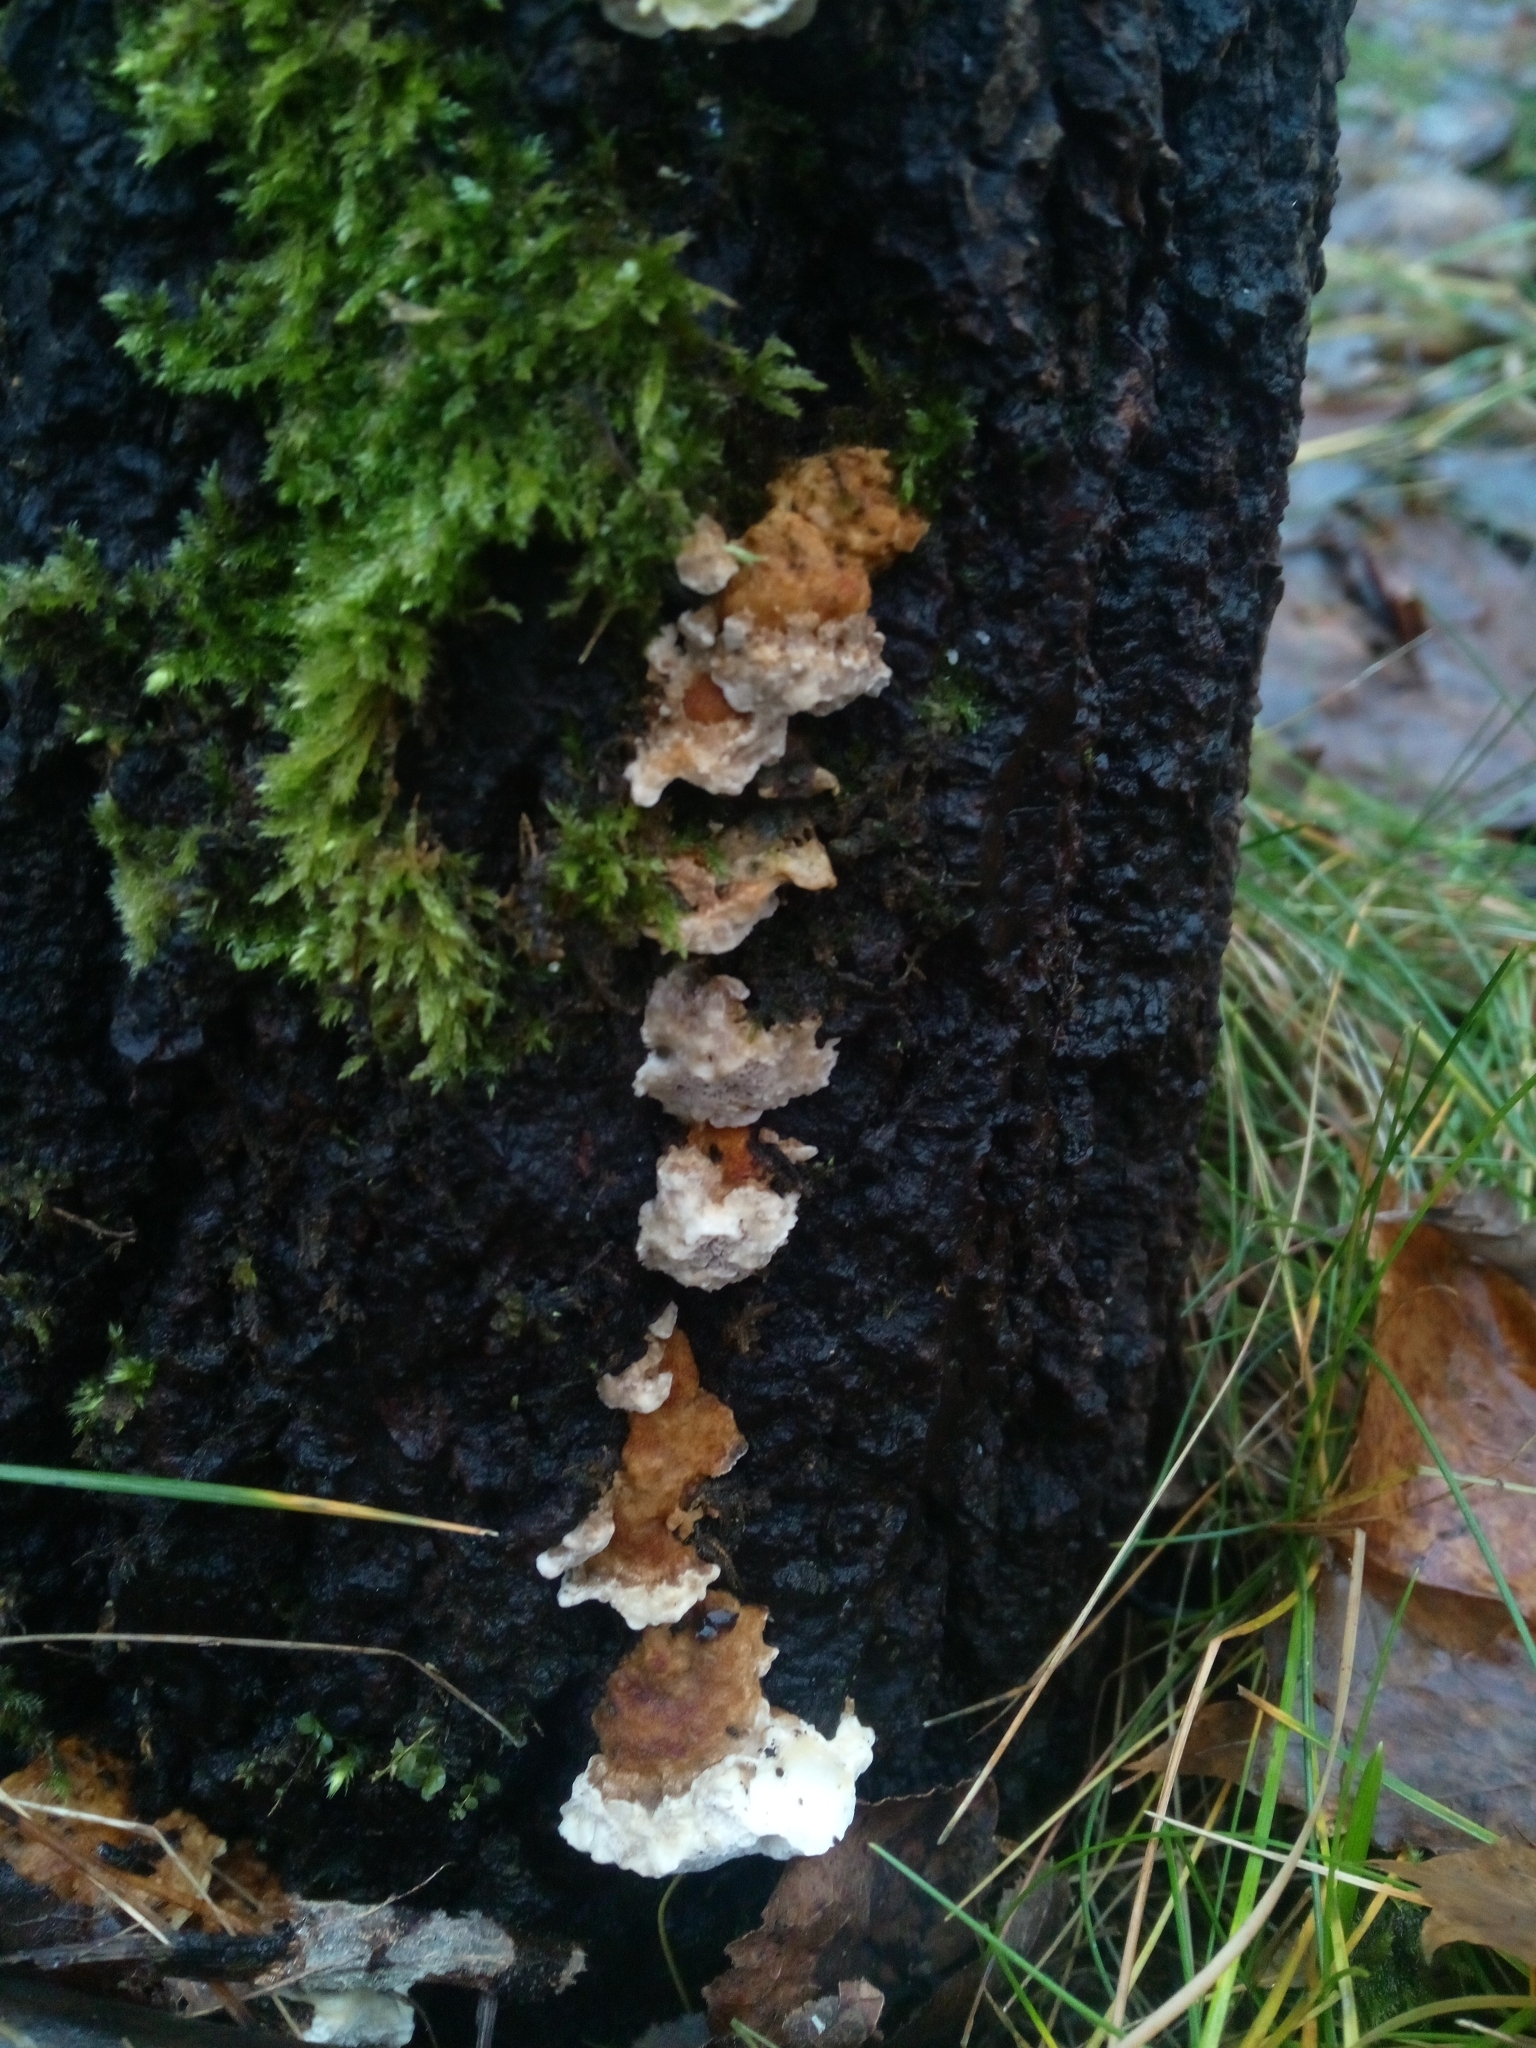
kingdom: Fungi
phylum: Basidiomycota
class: Agaricomycetes
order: Polyporales
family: Fomitopsidaceae
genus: Neoantrodia
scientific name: Neoantrodia serialis
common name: Serried porecrust
